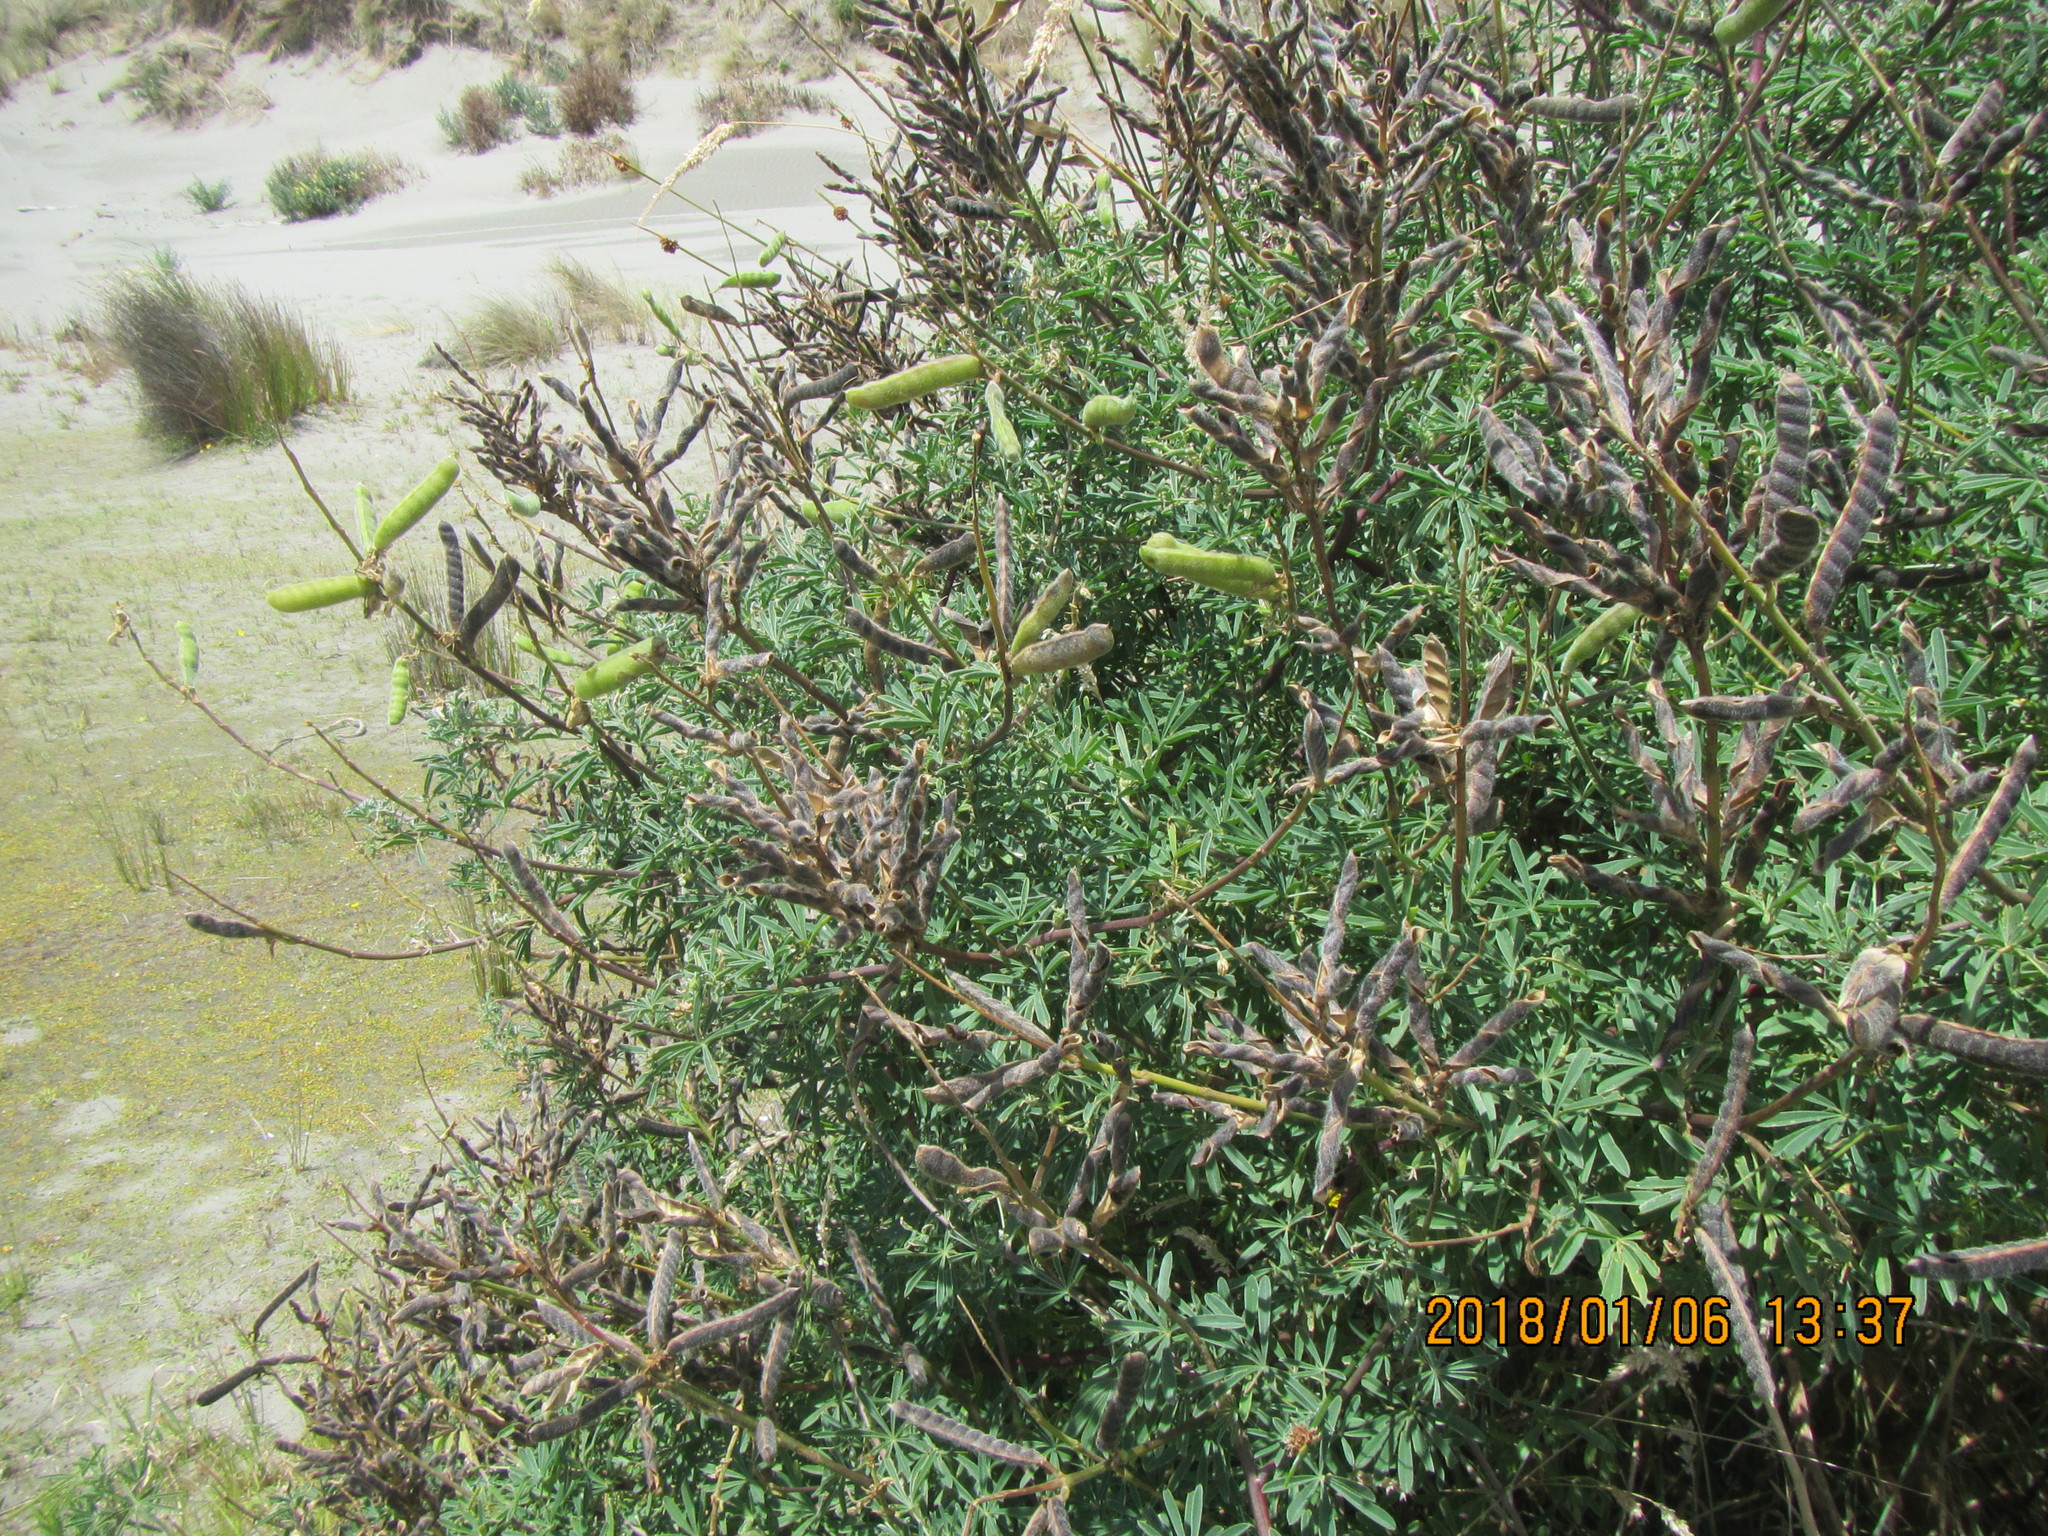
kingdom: Plantae
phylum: Tracheophyta
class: Magnoliopsida
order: Fabales
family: Fabaceae
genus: Lupinus
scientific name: Lupinus arboreus
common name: Yellow bush lupine
